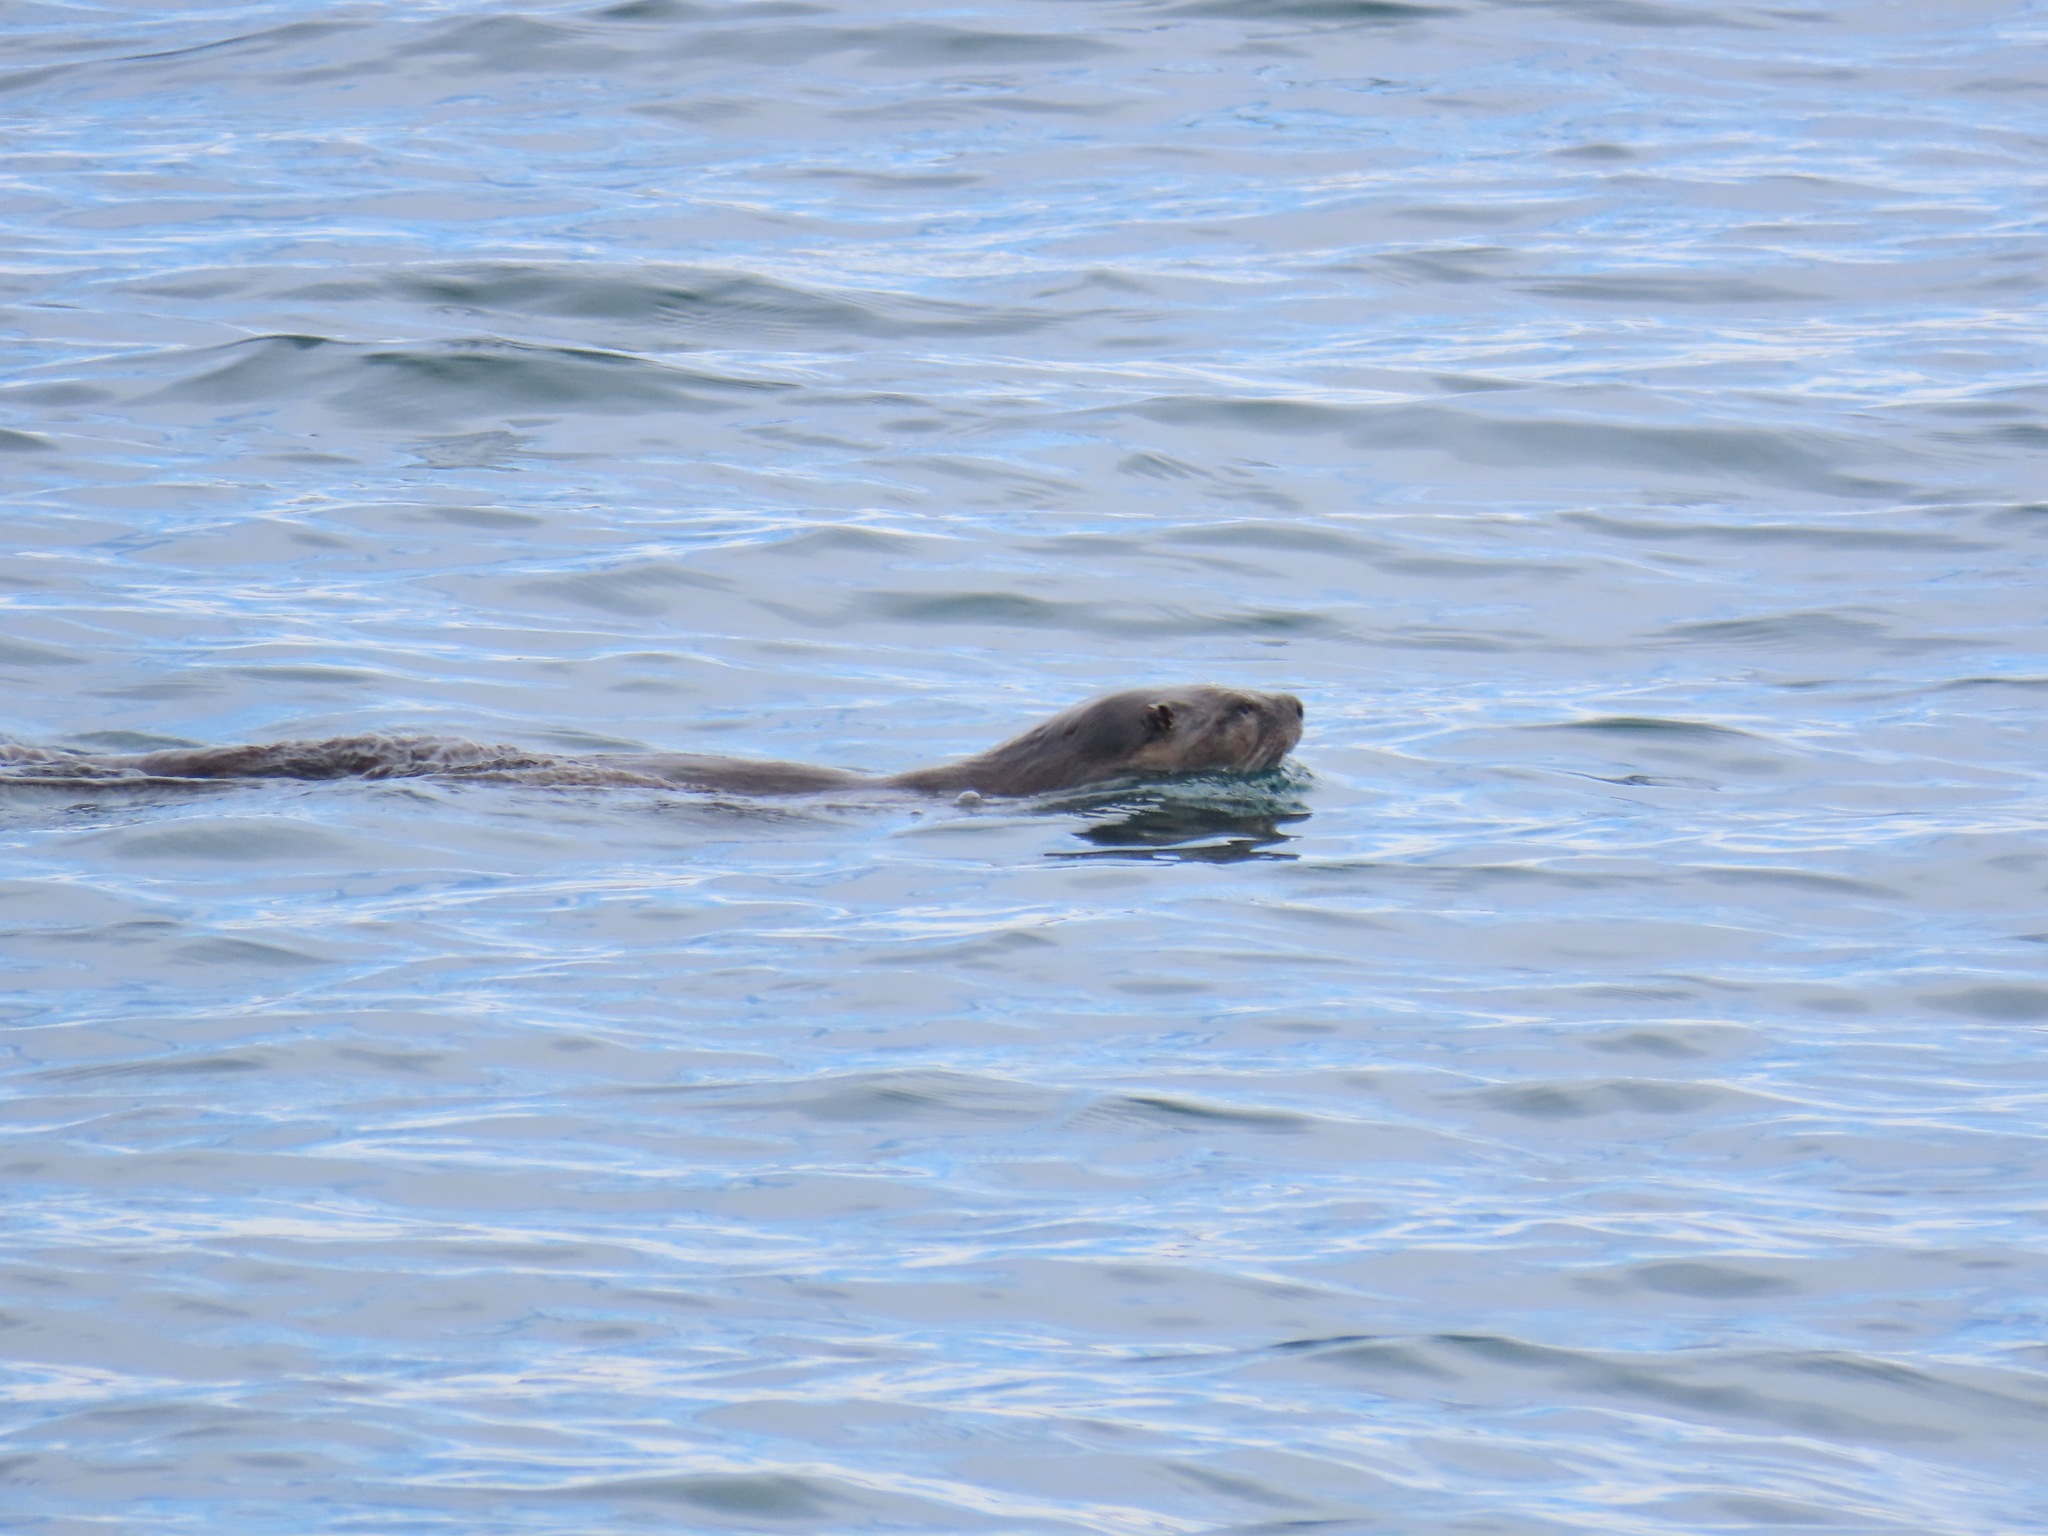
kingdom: Animalia
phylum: Chordata
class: Mammalia
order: Carnivora
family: Mustelidae
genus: Lontra
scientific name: Lontra canadensis
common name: North american river otter
